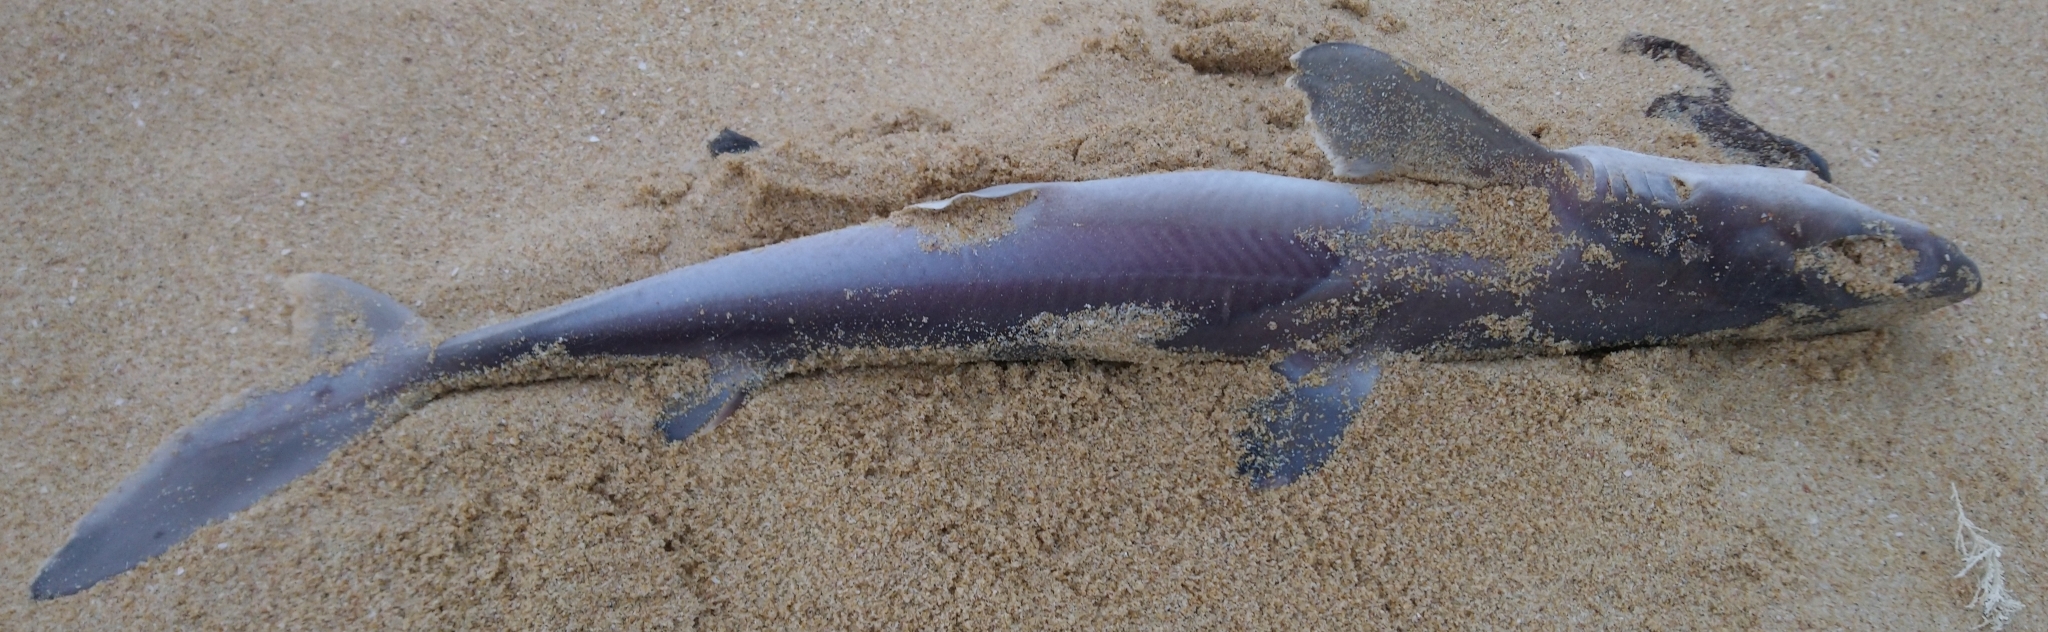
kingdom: Animalia
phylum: Chordata
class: Elasmobranchii
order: Squaliformes
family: Squalidae
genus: Squalus
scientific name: Squalus margaretsmithae
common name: Smith’s dogfish shark
